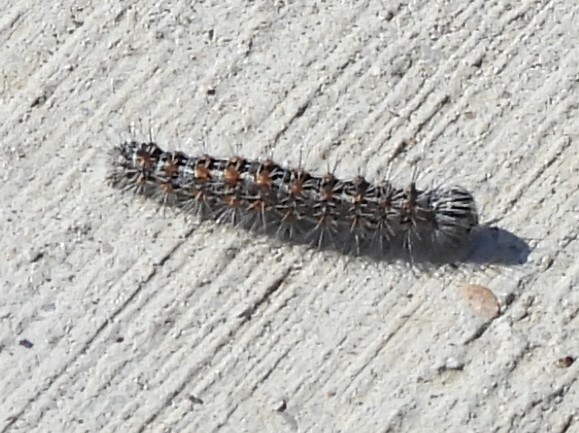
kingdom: Animalia
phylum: Arthropoda
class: Insecta
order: Lepidoptera
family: Noctuidae
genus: Acronicta
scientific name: Acronicta insularis
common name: Henry's marsh moth
